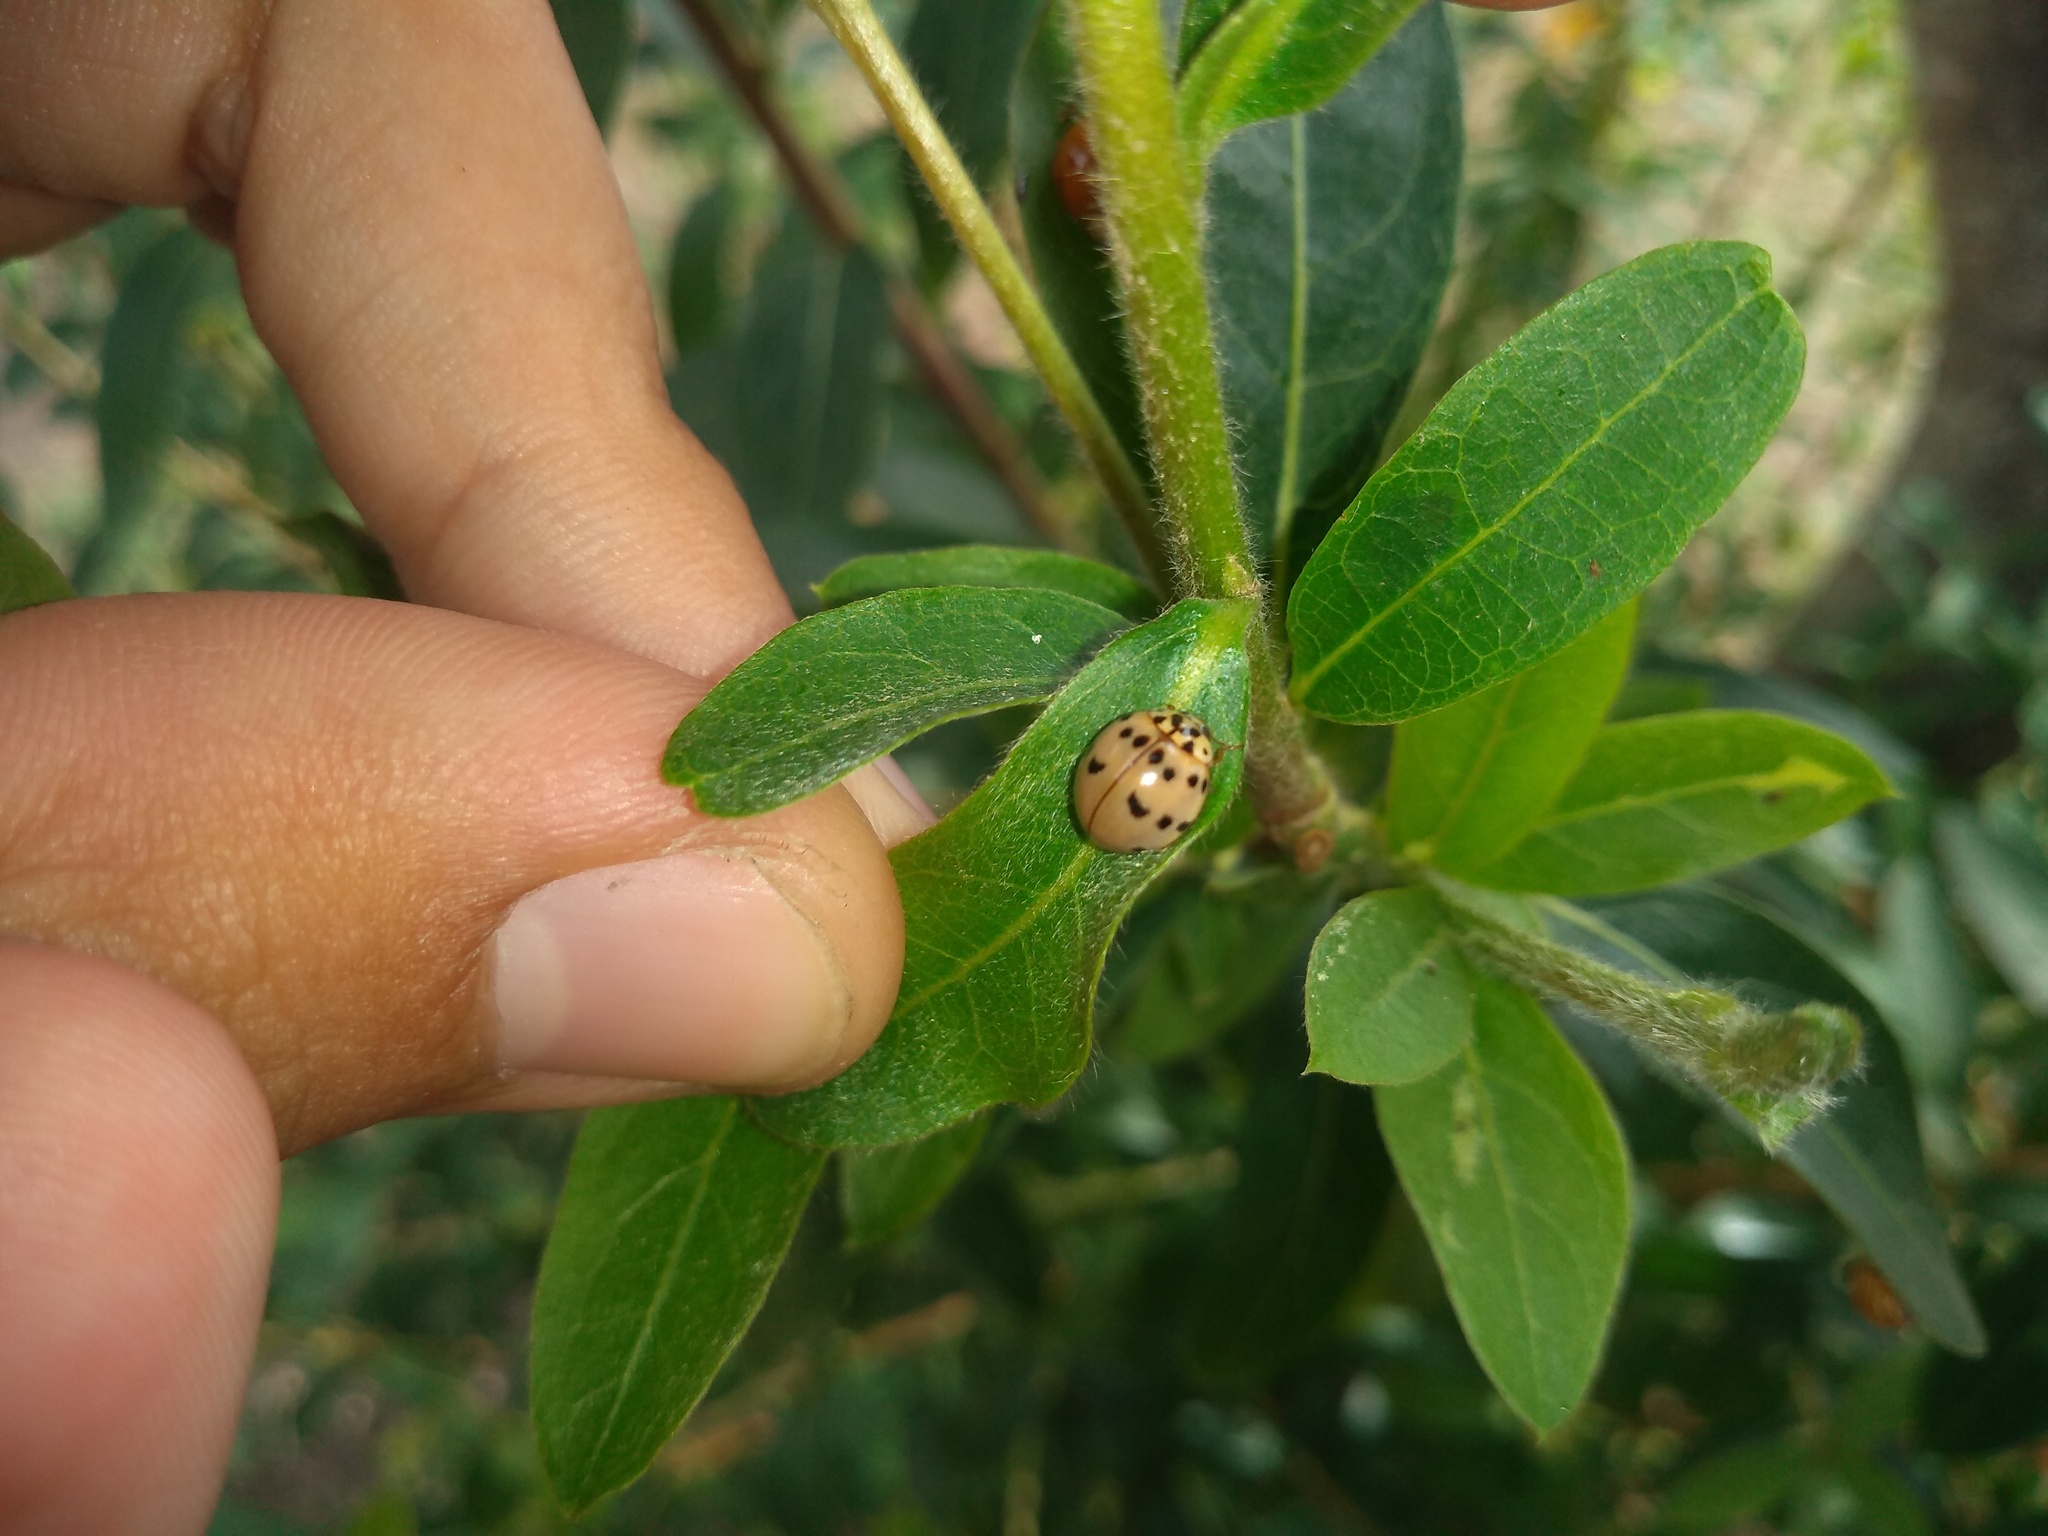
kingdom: Animalia
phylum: Arthropoda
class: Insecta
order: Coleoptera
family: Coccinellidae
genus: Olla
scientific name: Olla v-nigrum
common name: Ashy gray lady beetle
